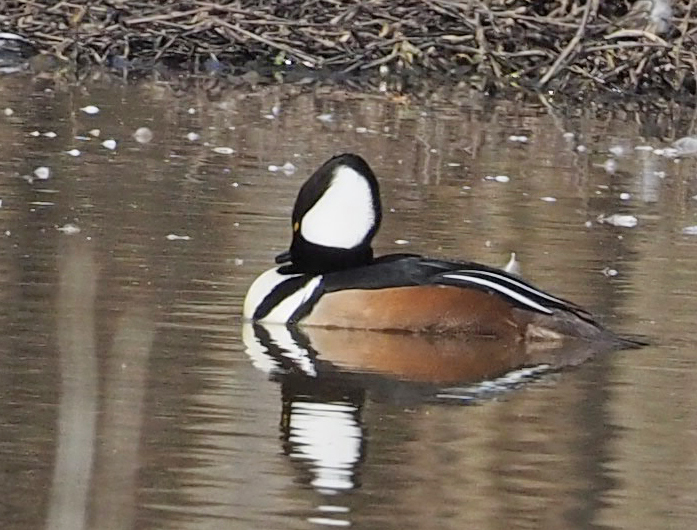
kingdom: Animalia
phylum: Chordata
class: Aves
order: Anseriformes
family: Anatidae
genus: Lophodytes
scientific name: Lophodytes cucullatus
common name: Hooded merganser
